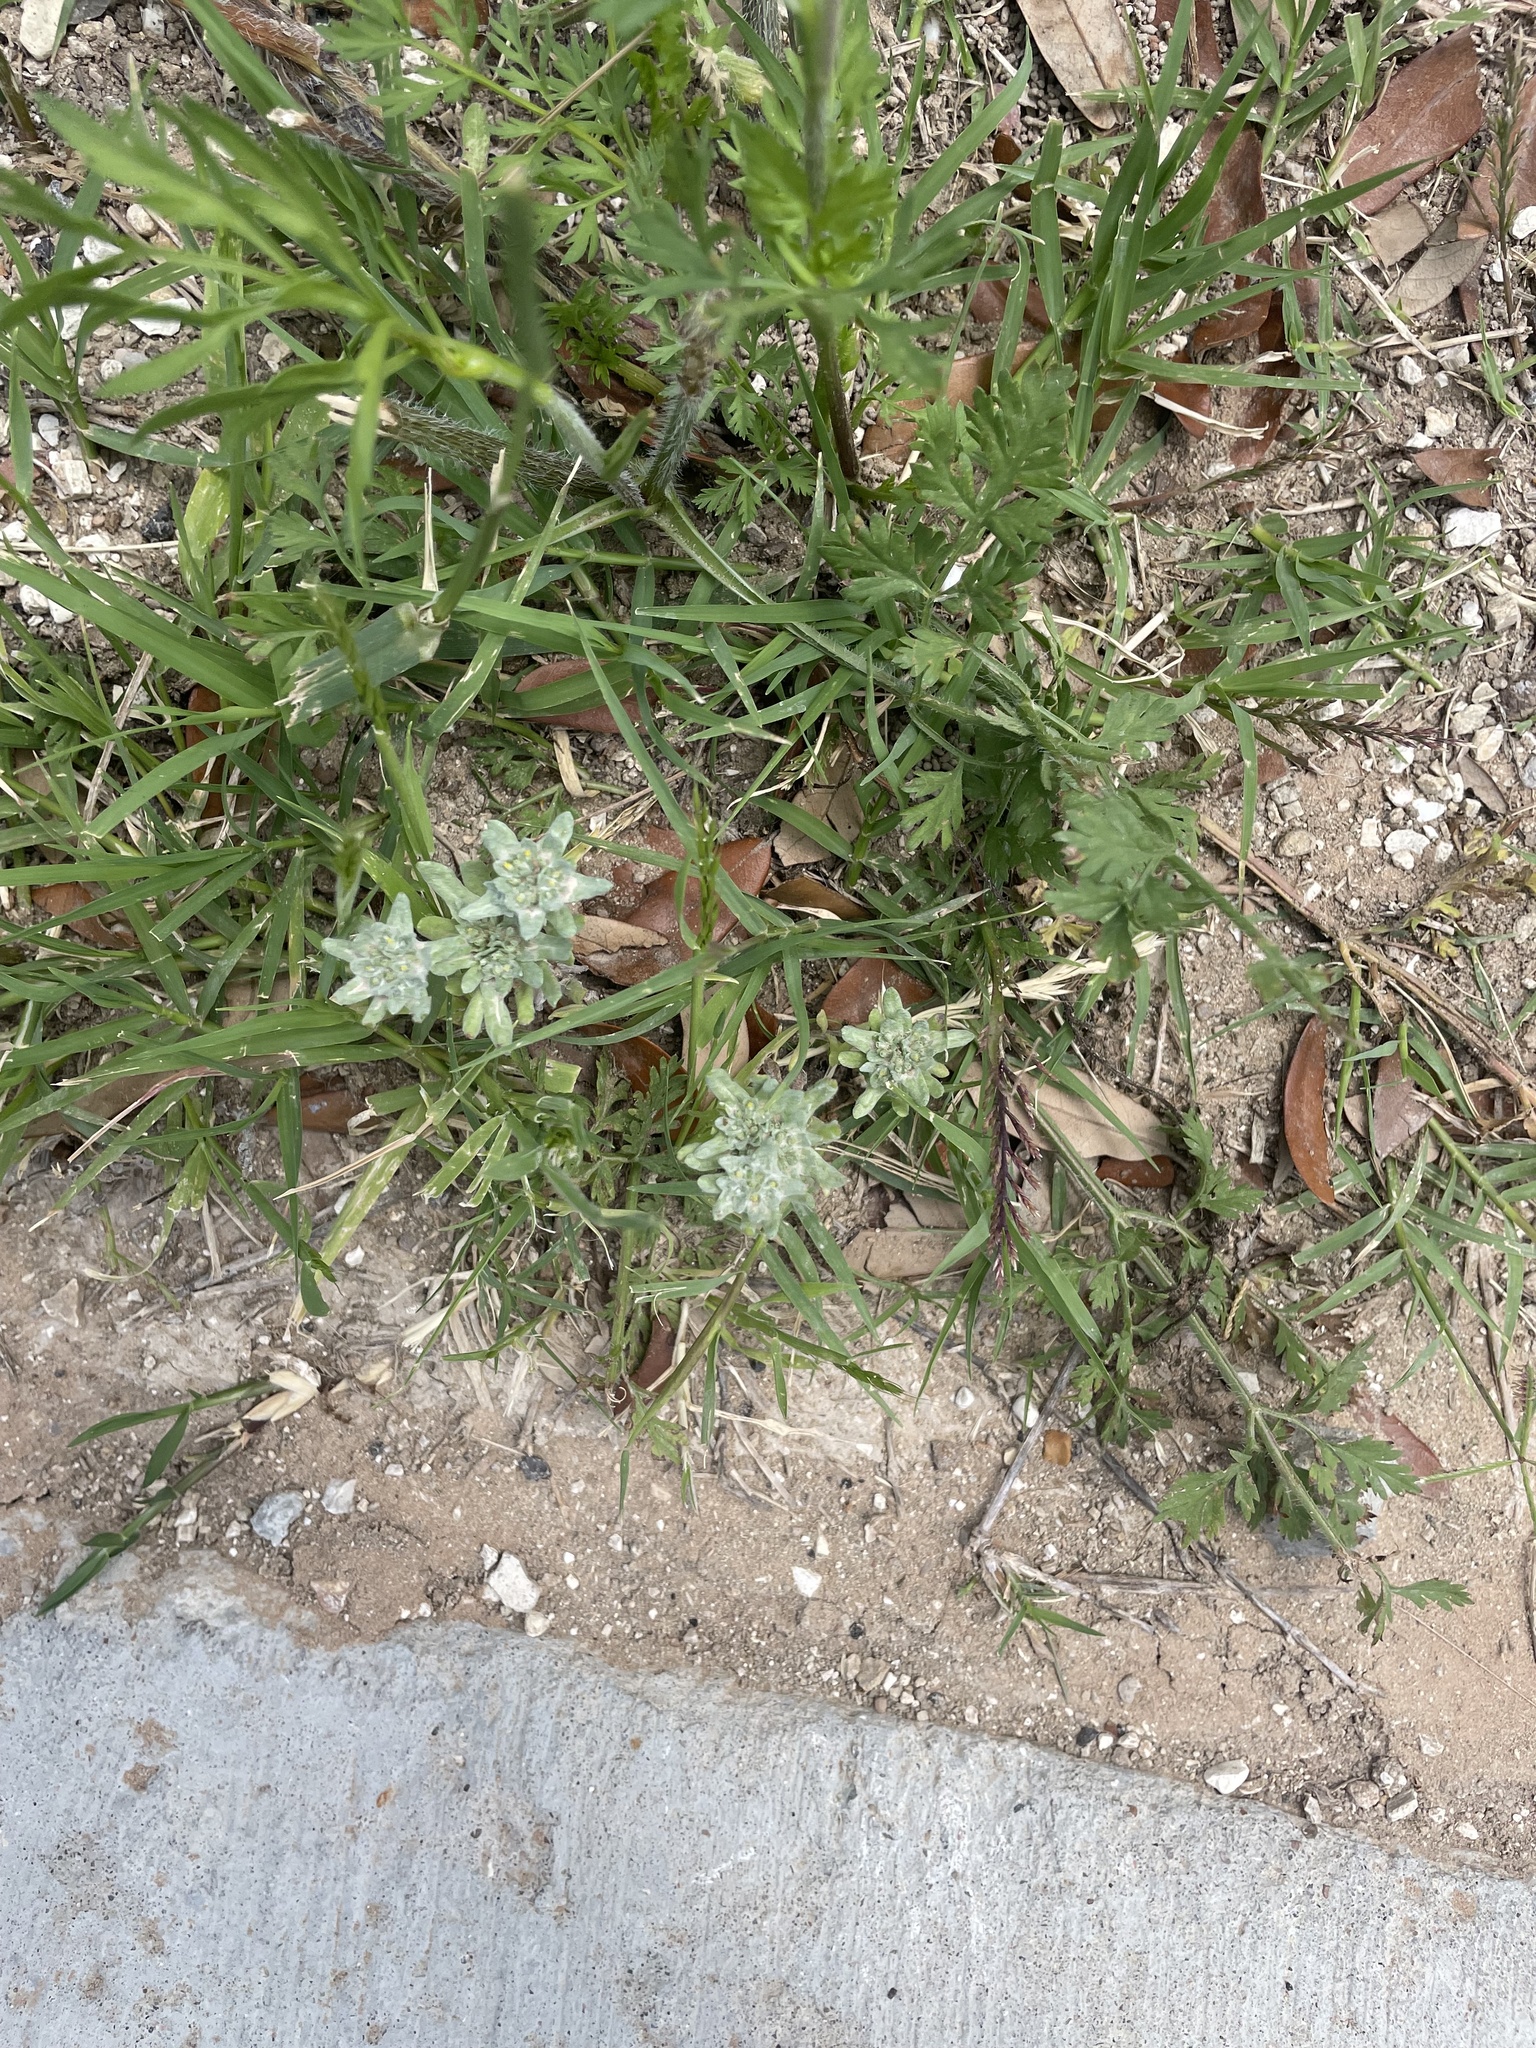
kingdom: Plantae
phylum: Tracheophyta
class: Magnoliopsida
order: Asterales
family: Asteraceae
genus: Diaperia
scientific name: Diaperia prolifera
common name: Big-head rabbit-tobacco
